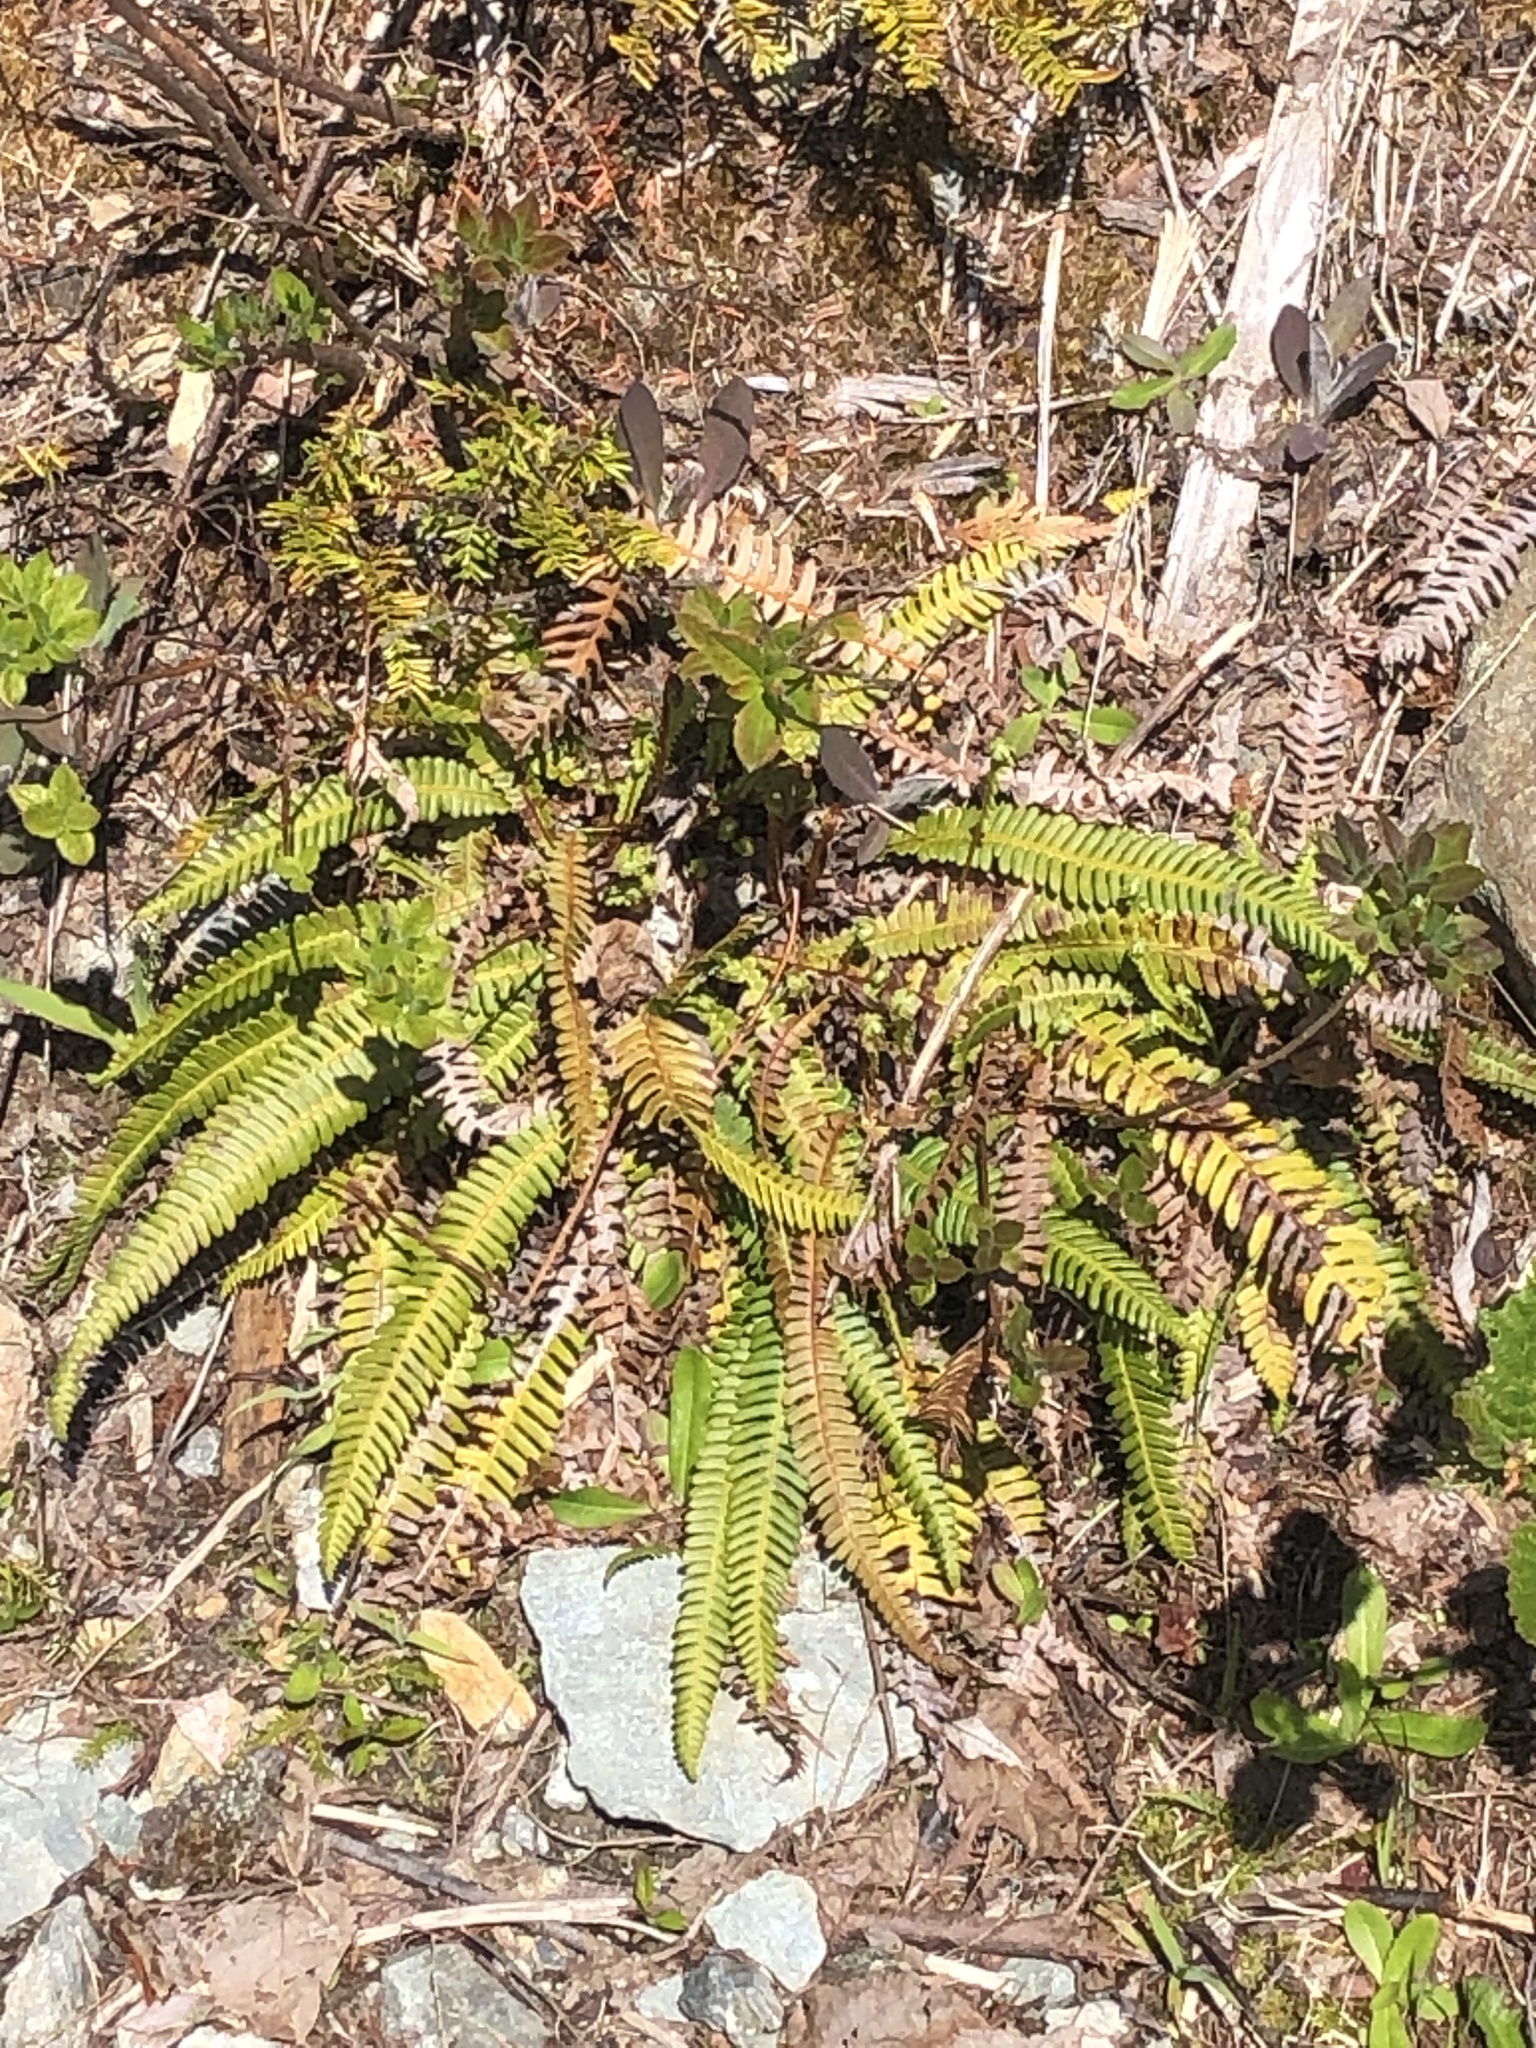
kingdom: Plantae
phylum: Tracheophyta
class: Polypodiopsida
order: Polypodiales
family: Blechnaceae
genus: Struthiopteris
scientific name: Struthiopteris spicant
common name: Deer fern
